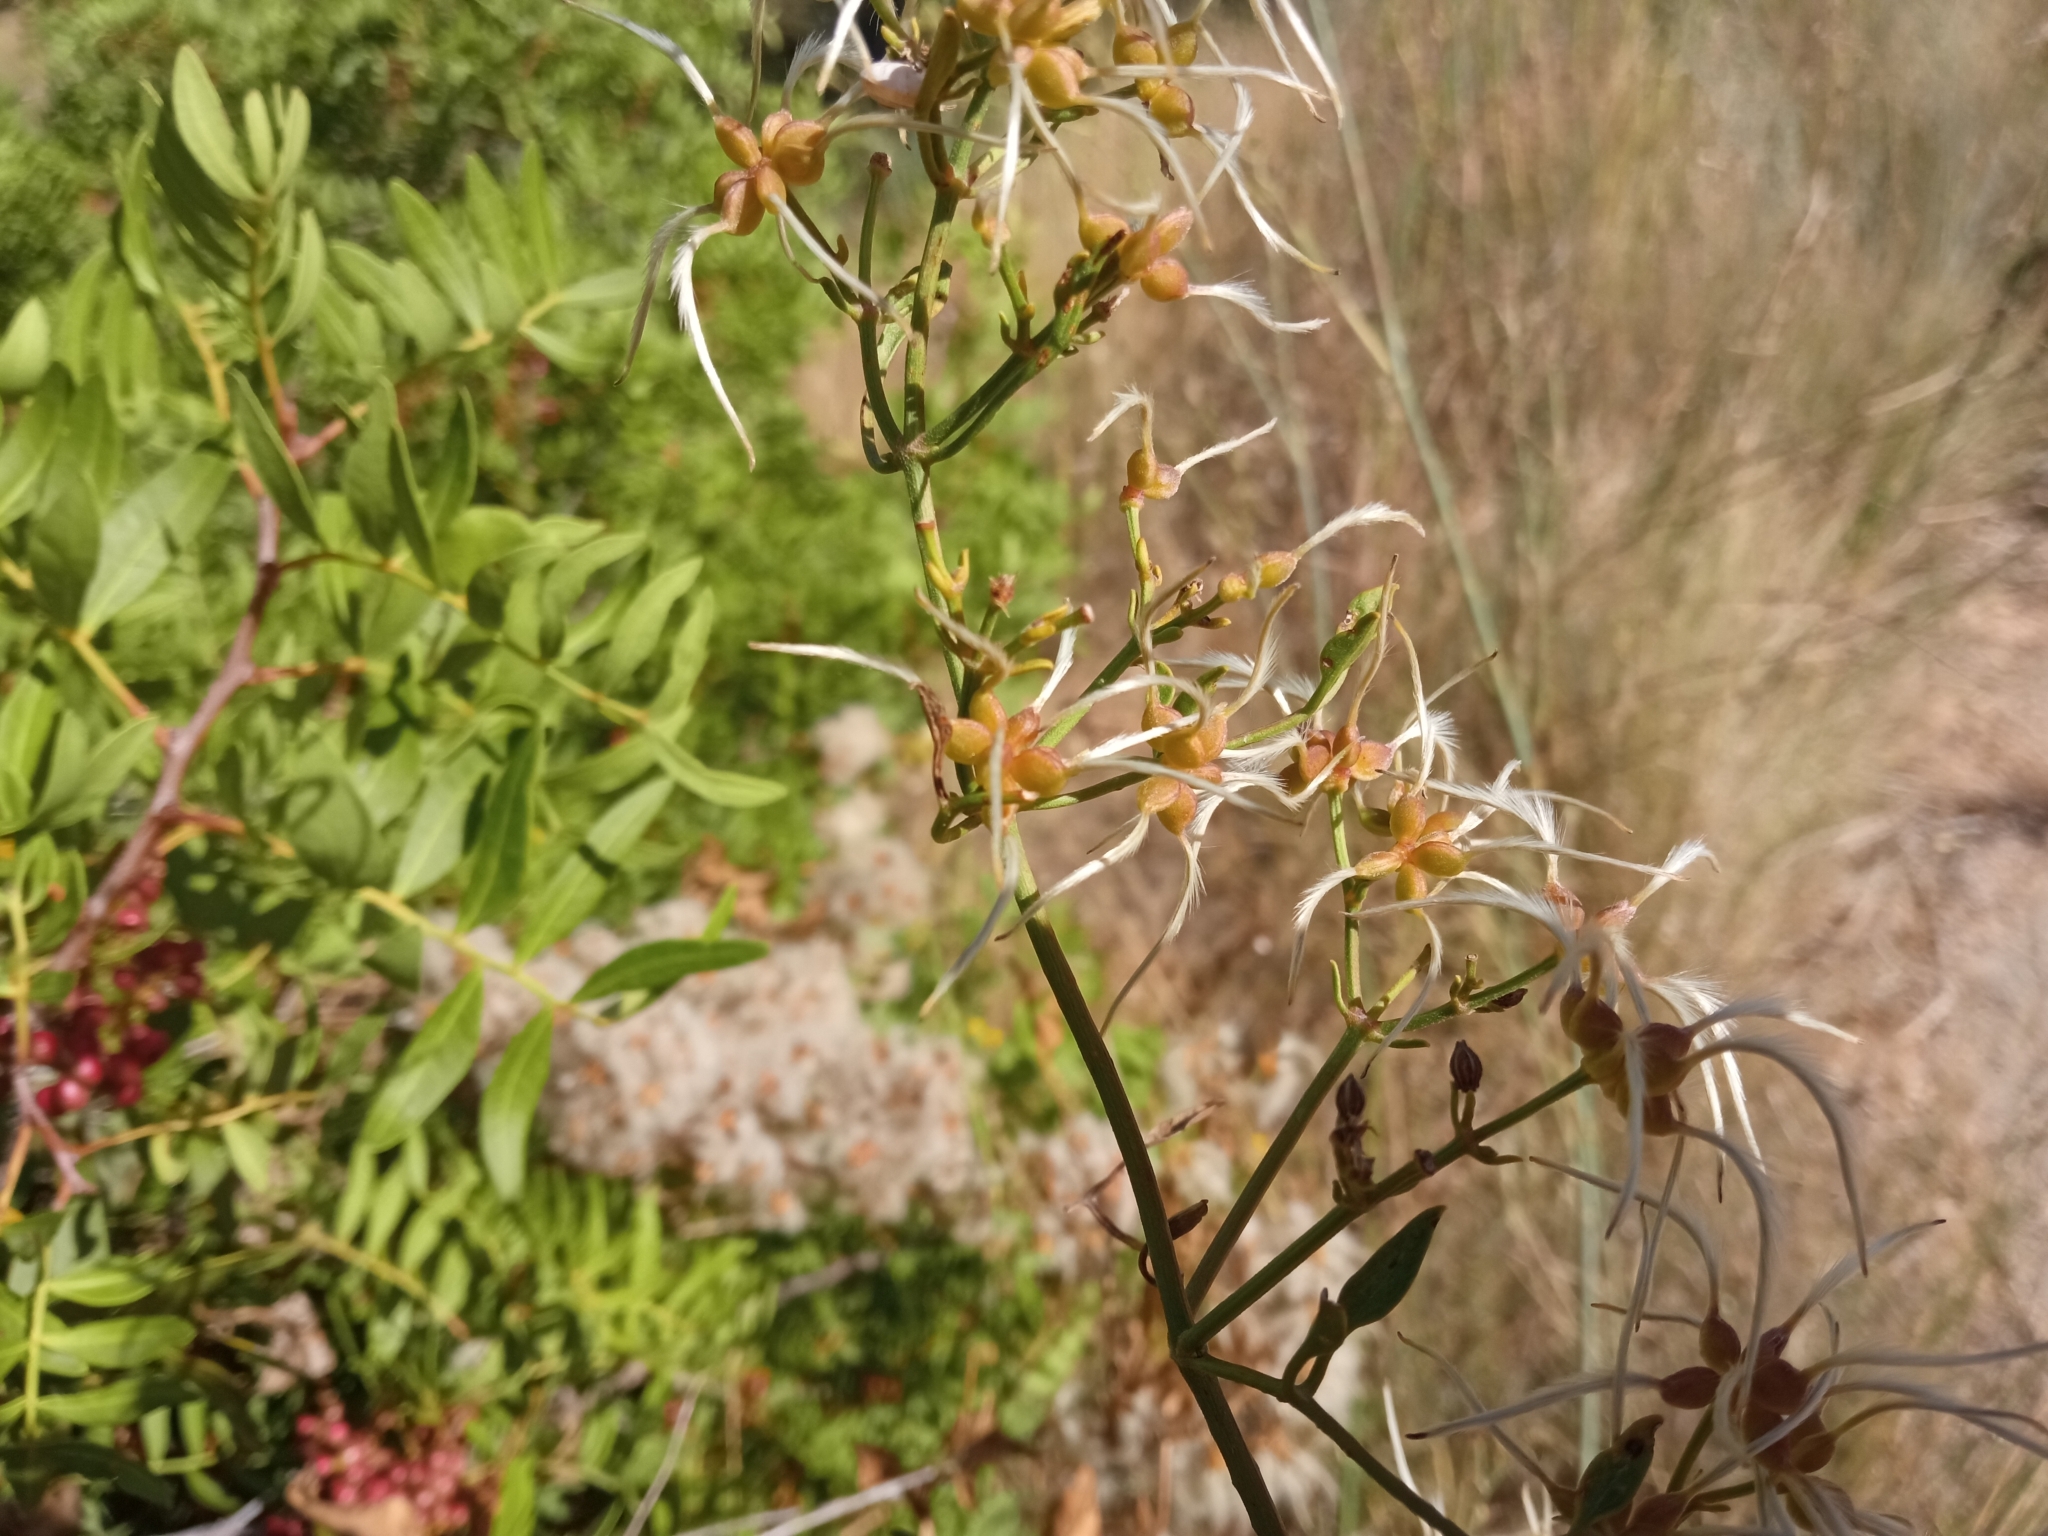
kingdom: Plantae
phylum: Tracheophyta
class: Magnoliopsida
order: Ranunculales
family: Ranunculaceae
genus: Clematis
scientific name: Clematis flammula
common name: Virgin's-bower
